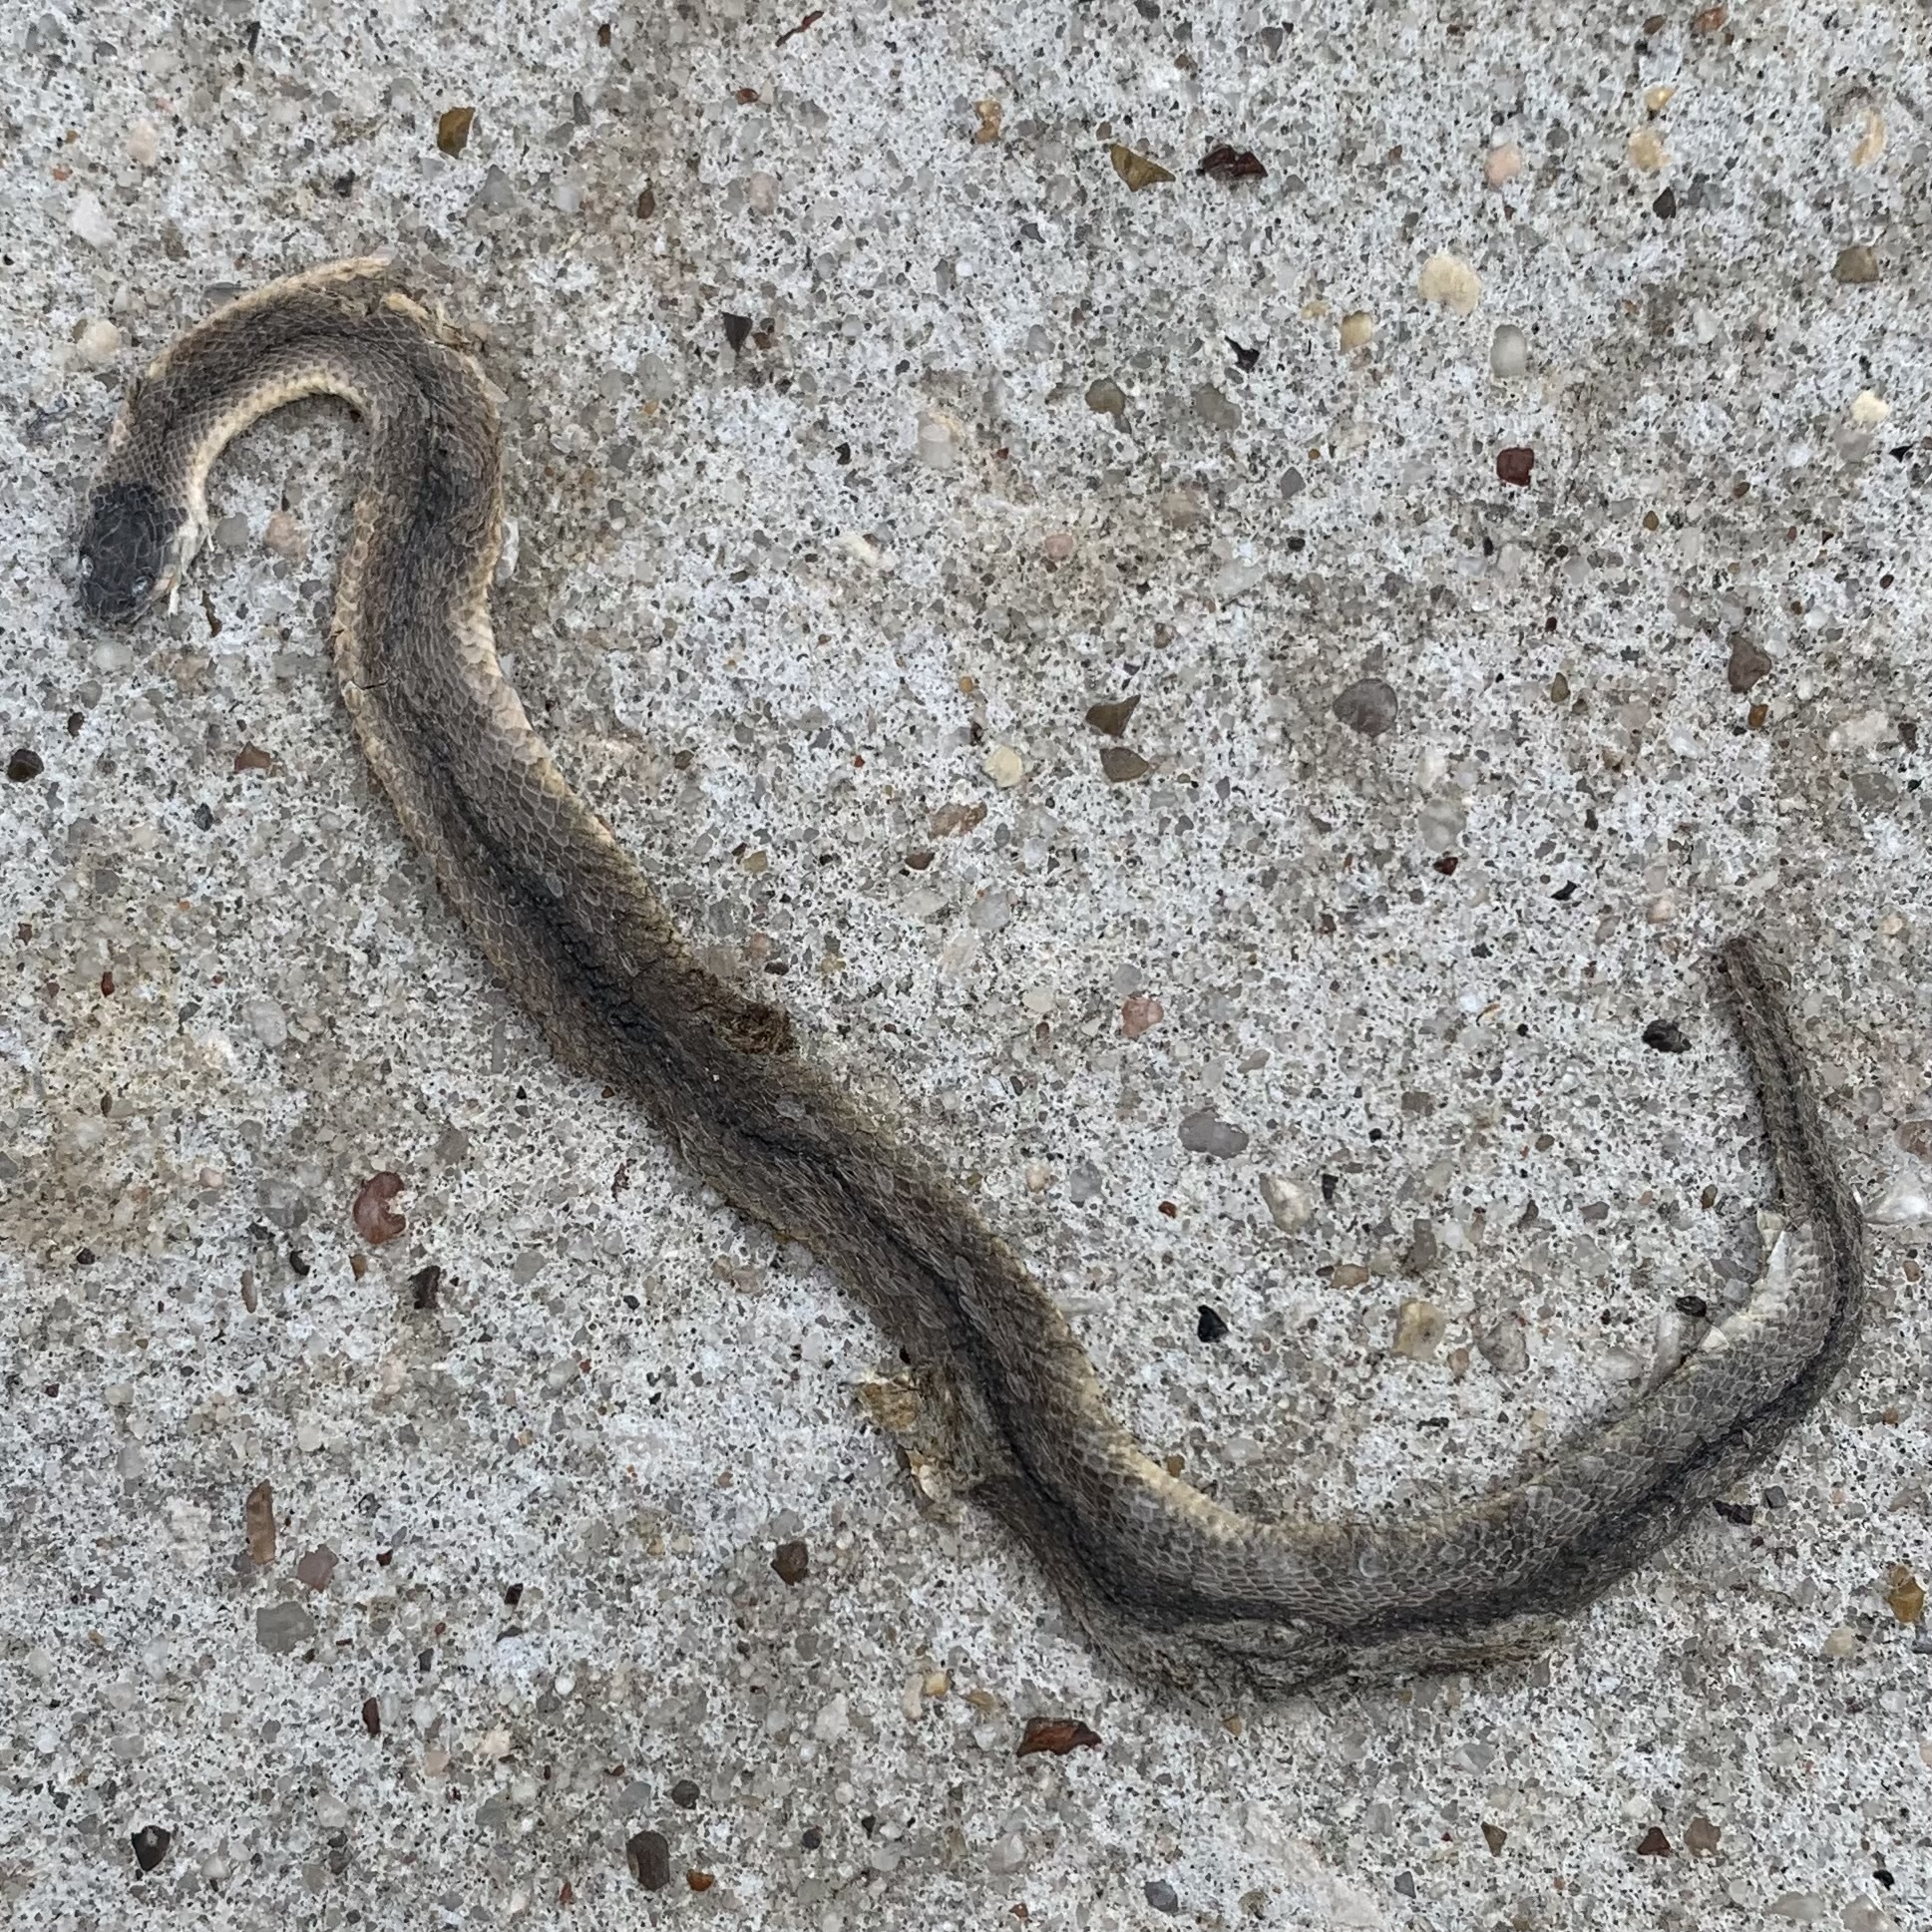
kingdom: Animalia
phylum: Chordata
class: Squamata
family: Colubridae
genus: Haldea
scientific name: Haldea striatula
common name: Rough earth snake
